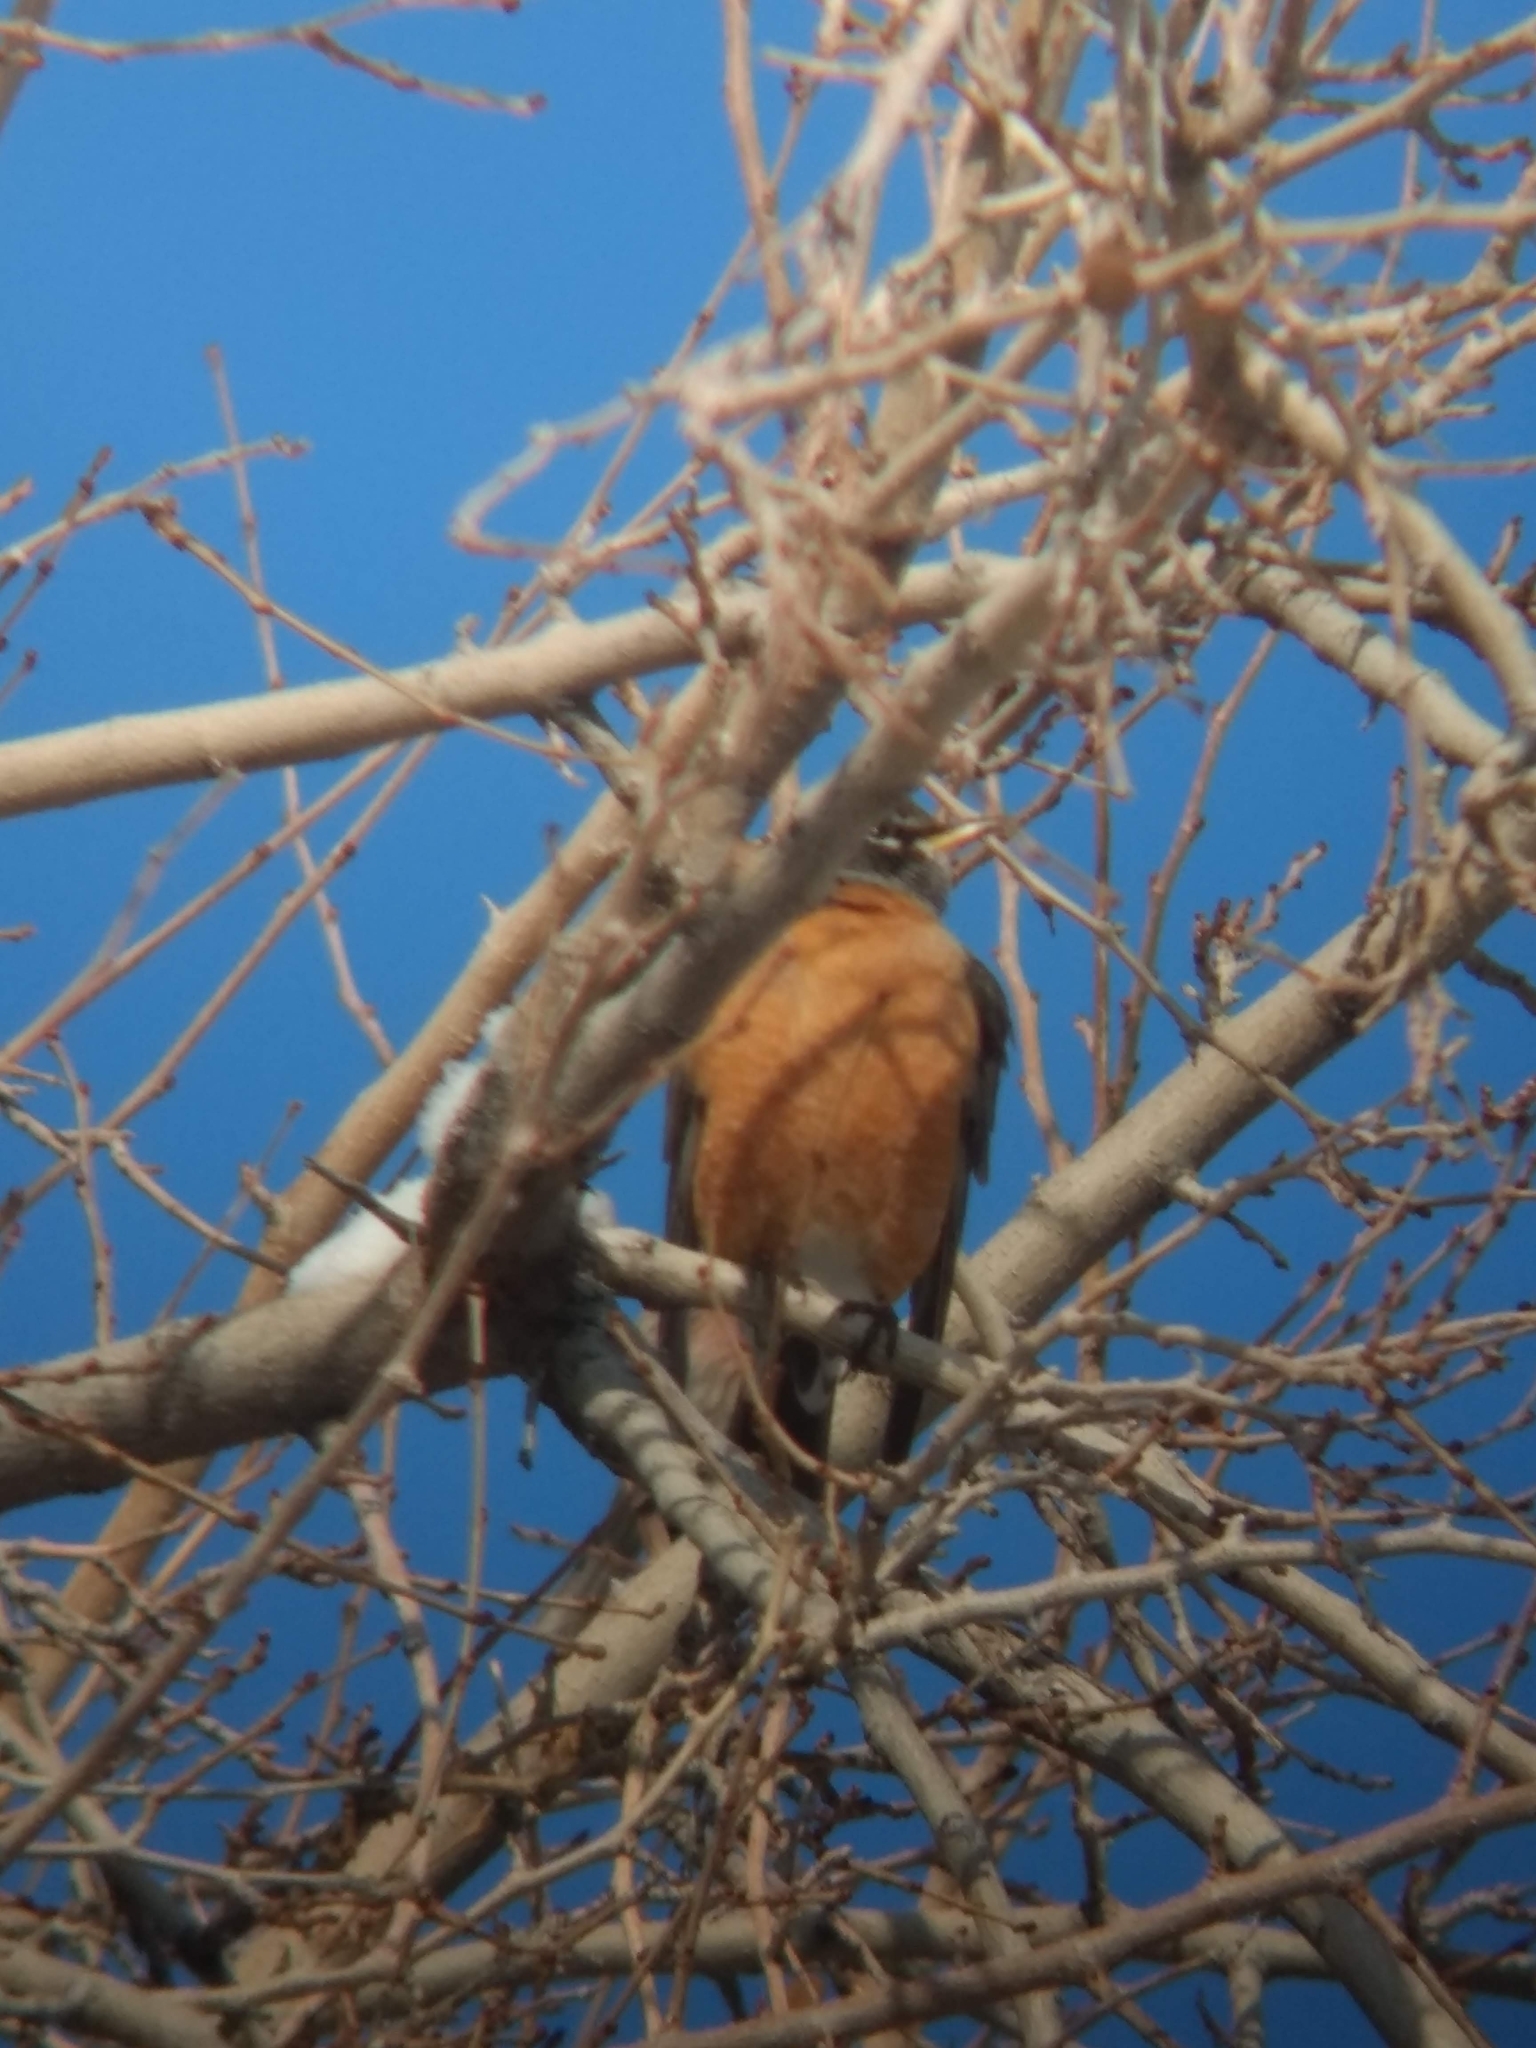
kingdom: Animalia
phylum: Chordata
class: Aves
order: Passeriformes
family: Turdidae
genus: Turdus
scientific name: Turdus migratorius
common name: American robin
